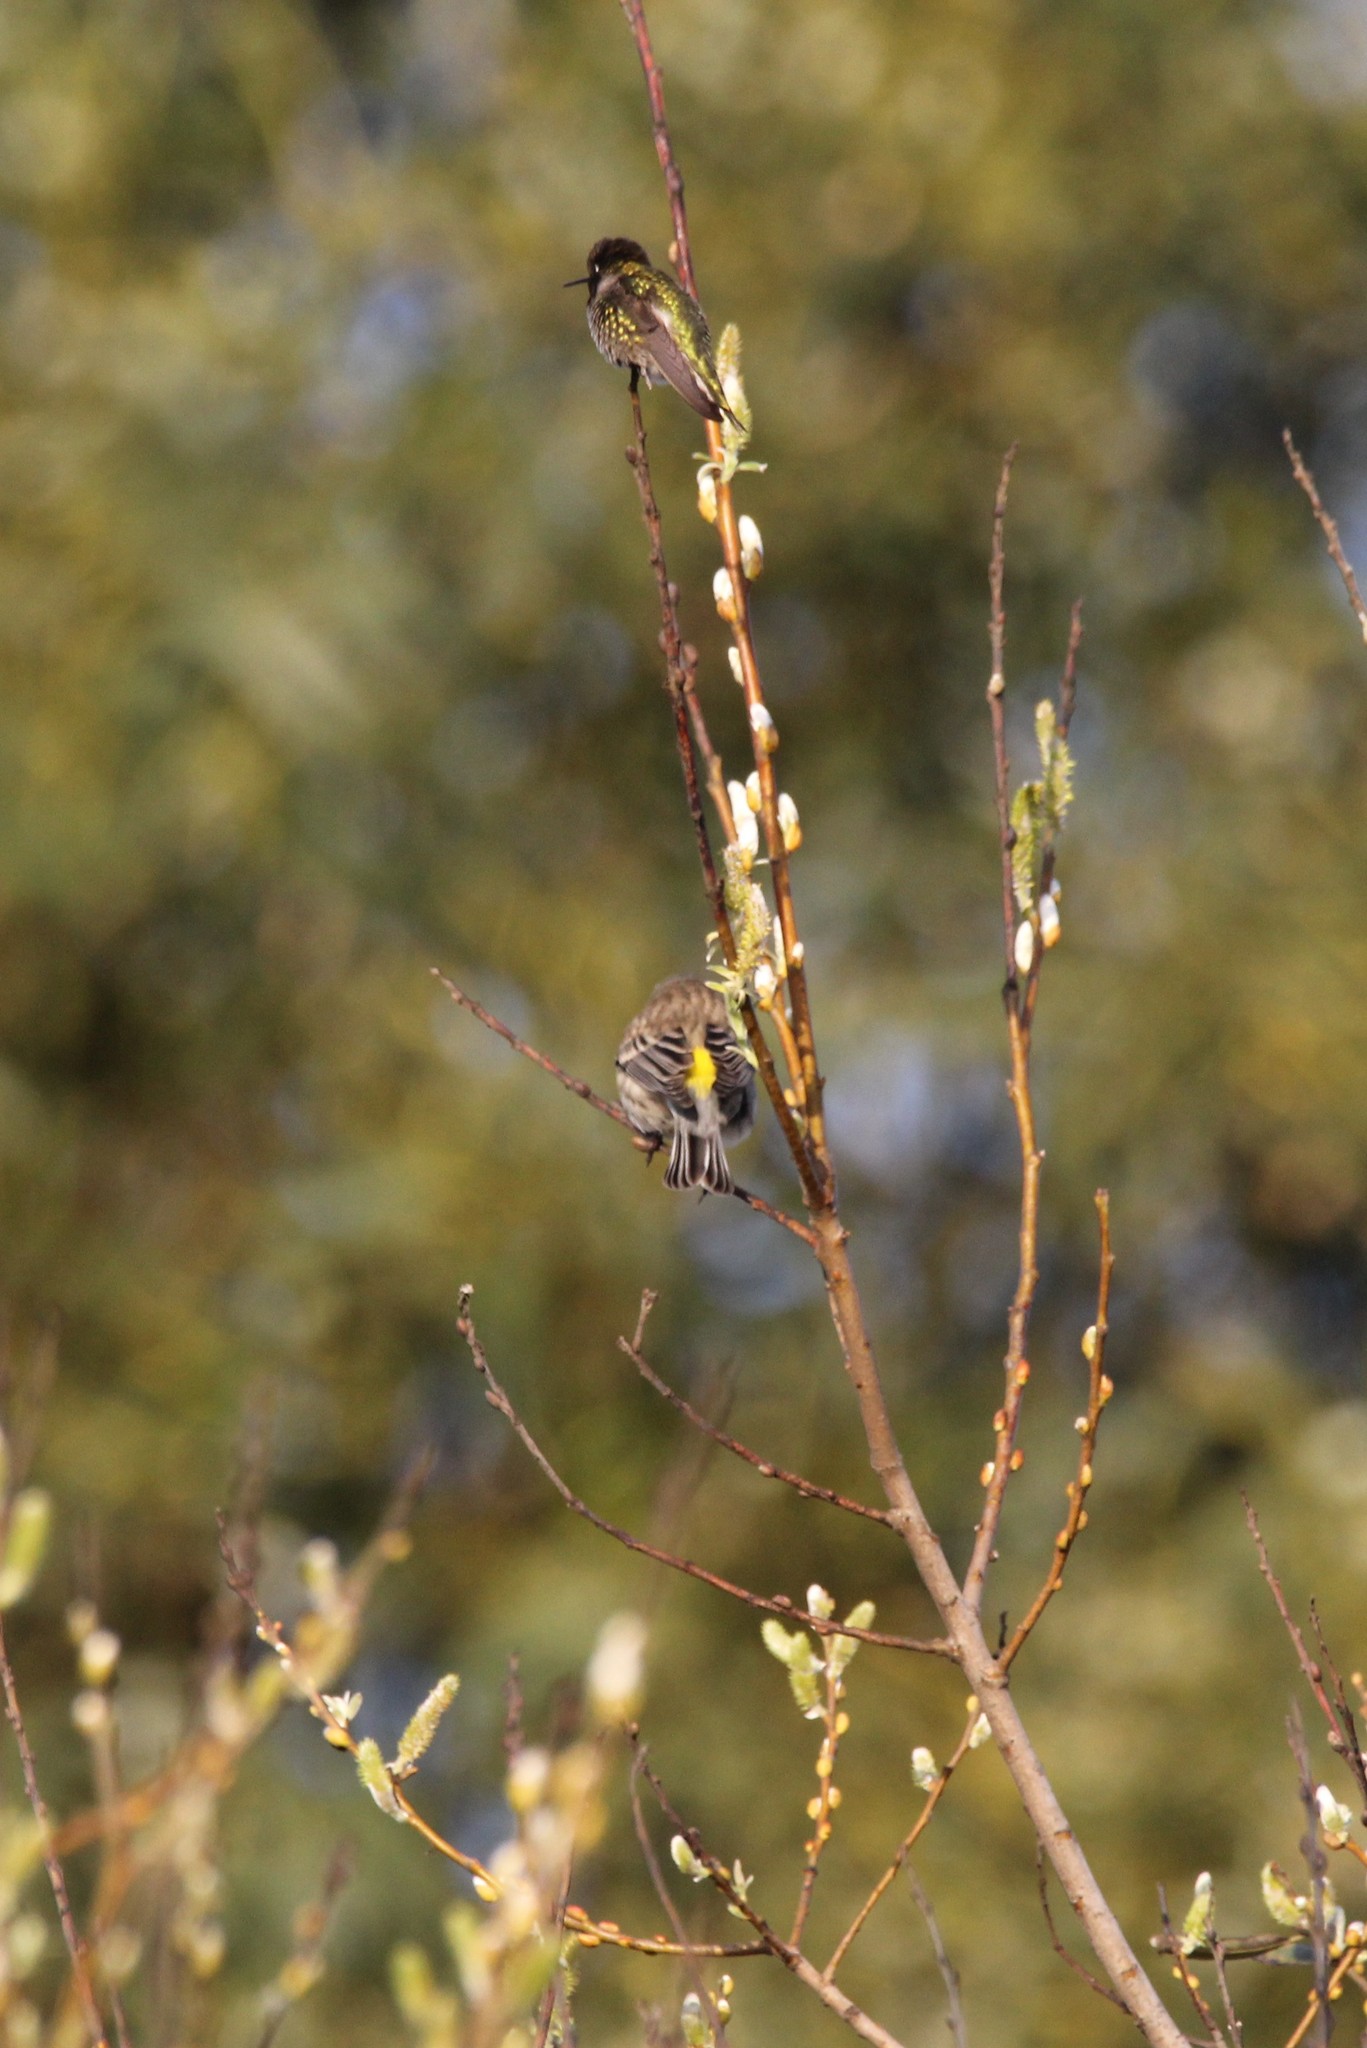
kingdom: Animalia
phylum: Chordata
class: Aves
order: Passeriformes
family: Parulidae
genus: Setophaga
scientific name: Setophaga coronata
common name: Myrtle warbler
